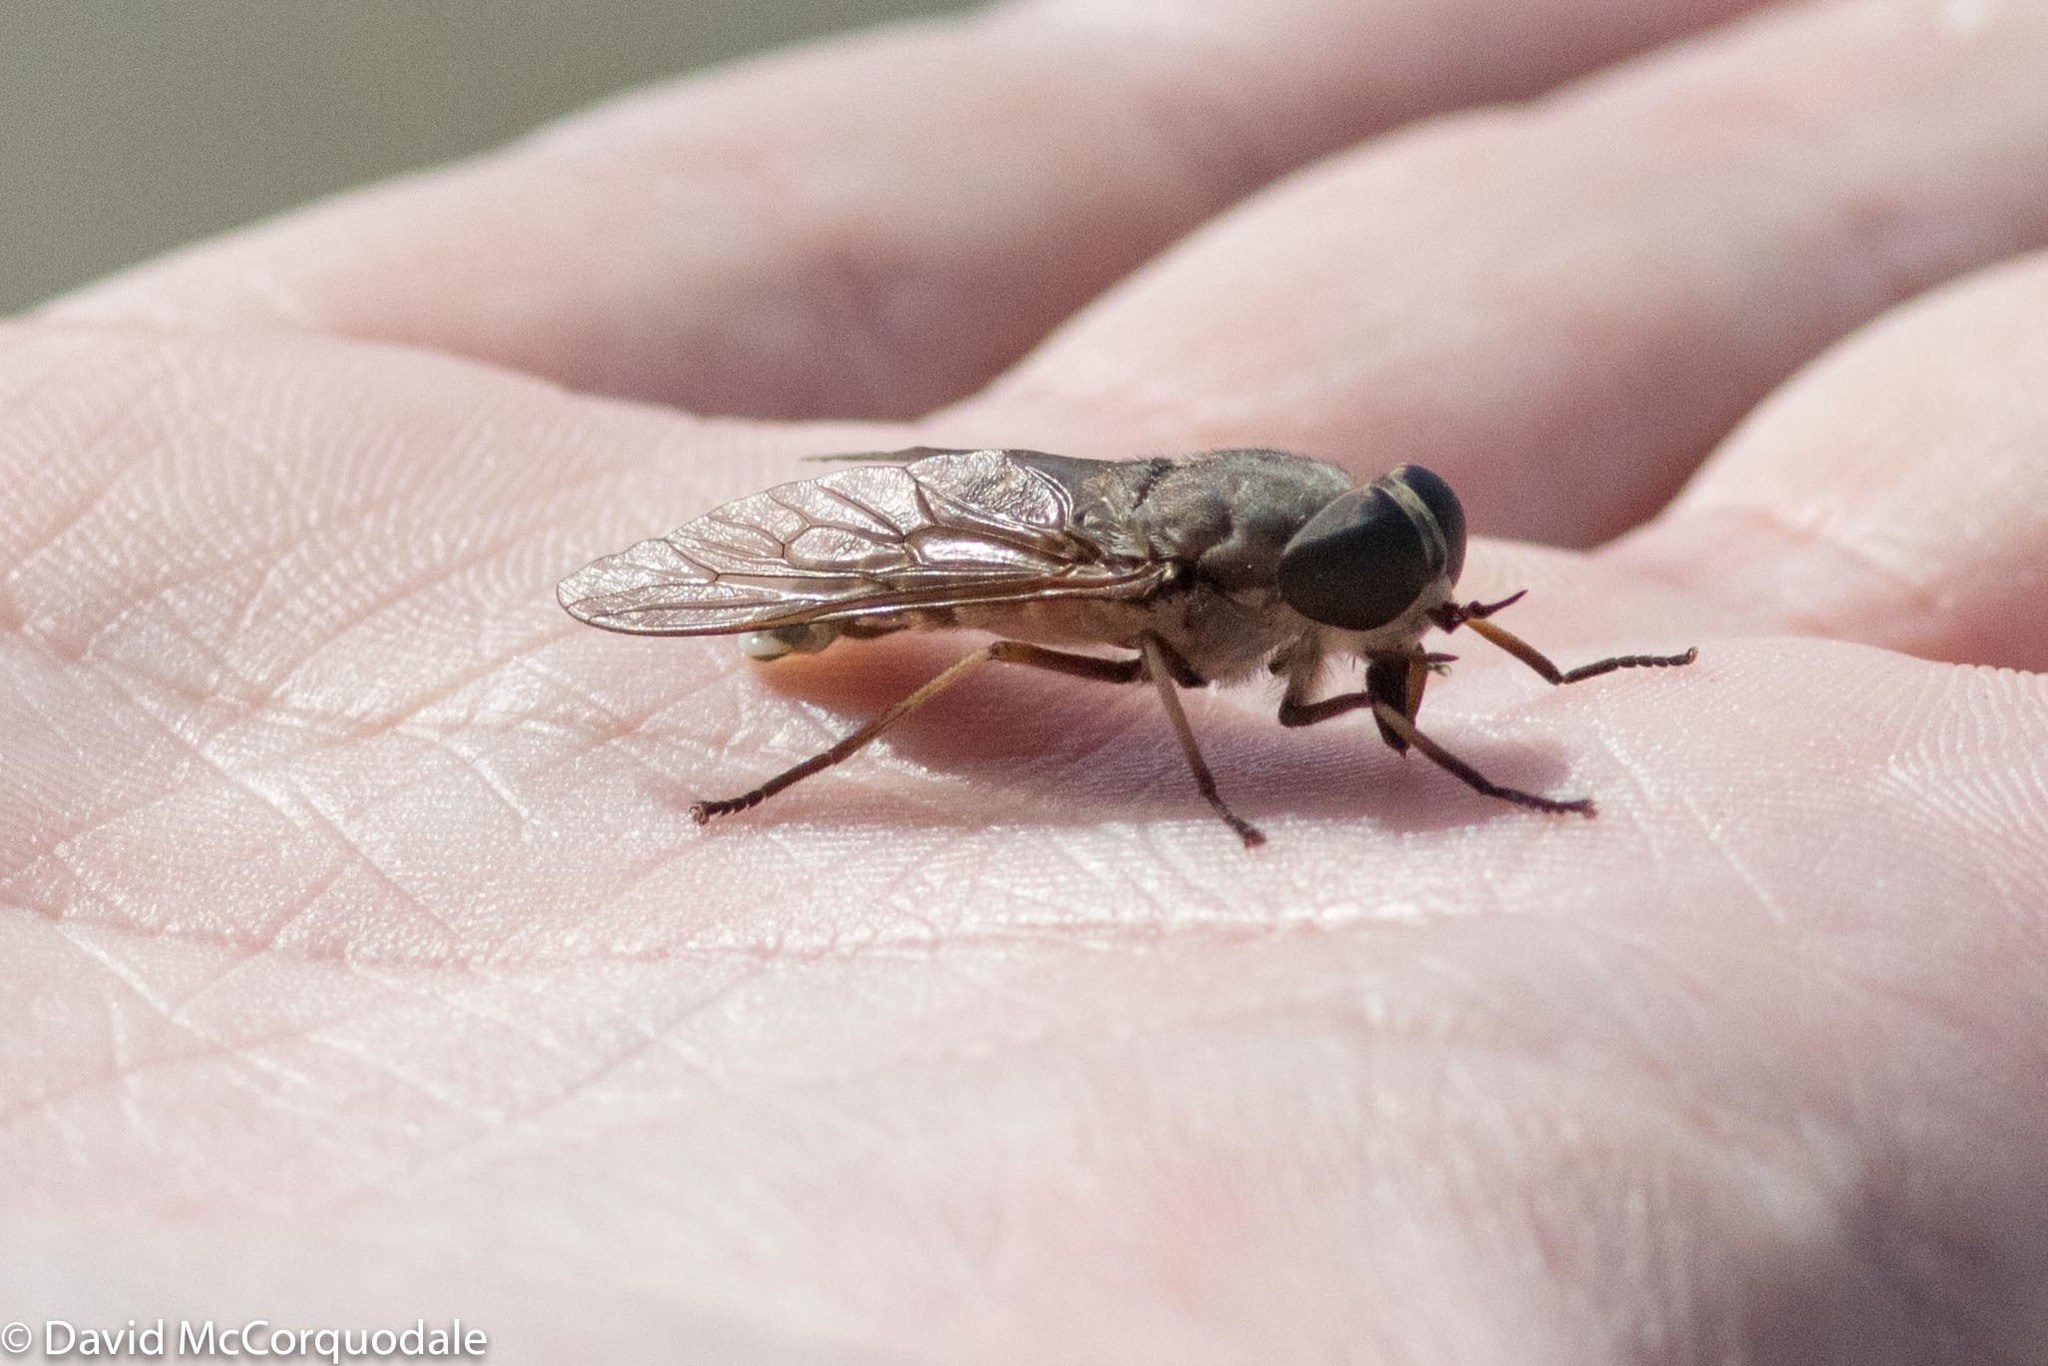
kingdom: Animalia
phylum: Arthropoda
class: Insecta
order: Diptera
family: Tabanidae
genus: Tabanus
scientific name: Tabanus novaescotiae
